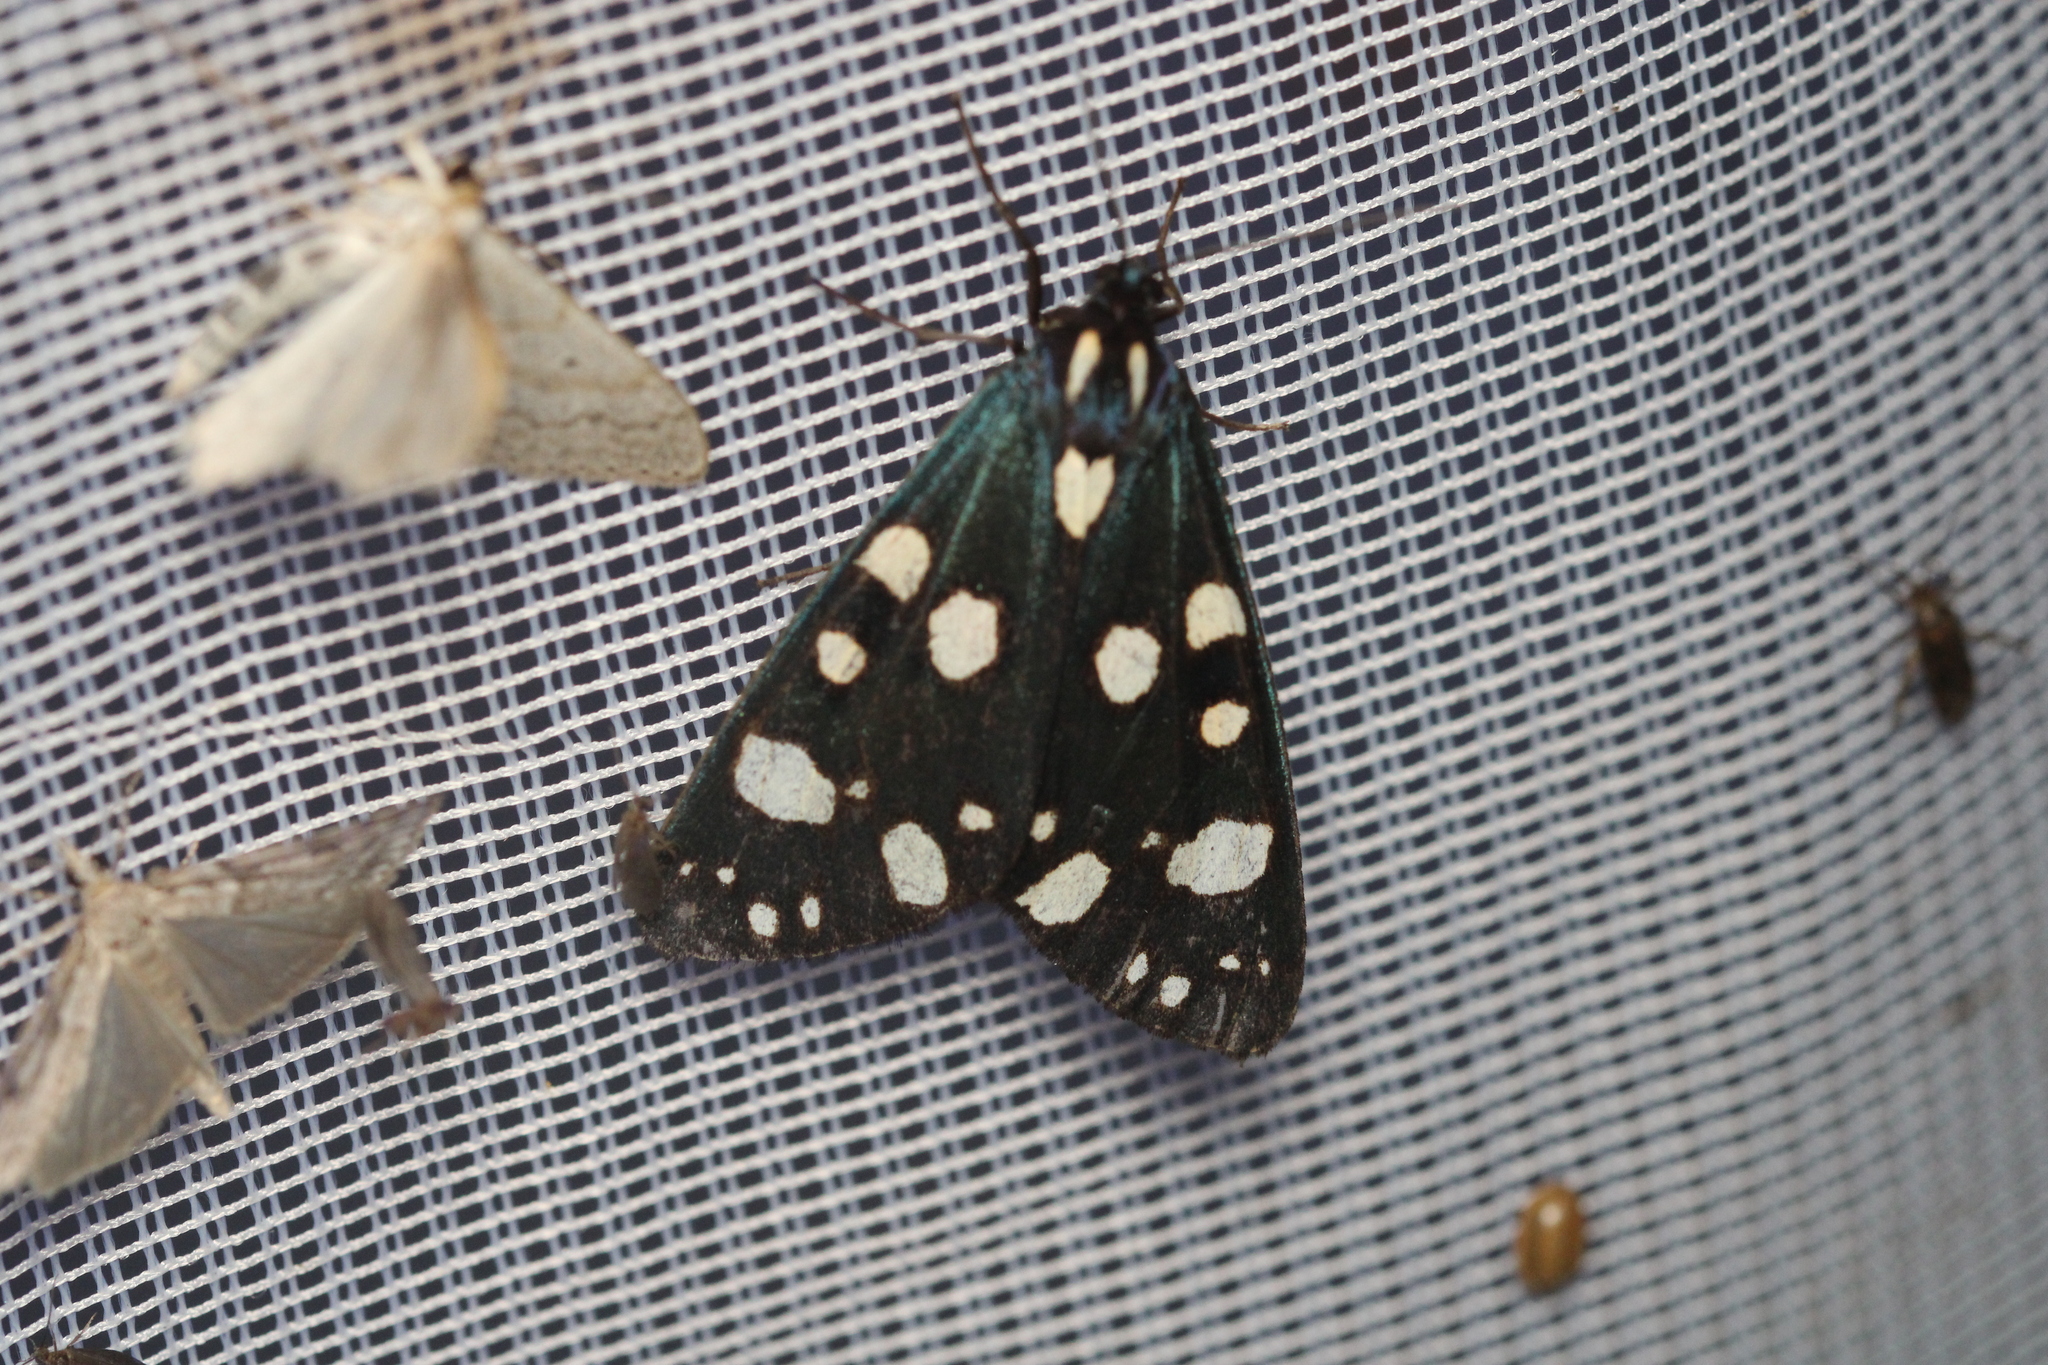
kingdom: Animalia
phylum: Arthropoda
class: Insecta
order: Lepidoptera
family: Erebidae
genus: Callimorpha
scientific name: Callimorpha dominula
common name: Scarlet tiger
